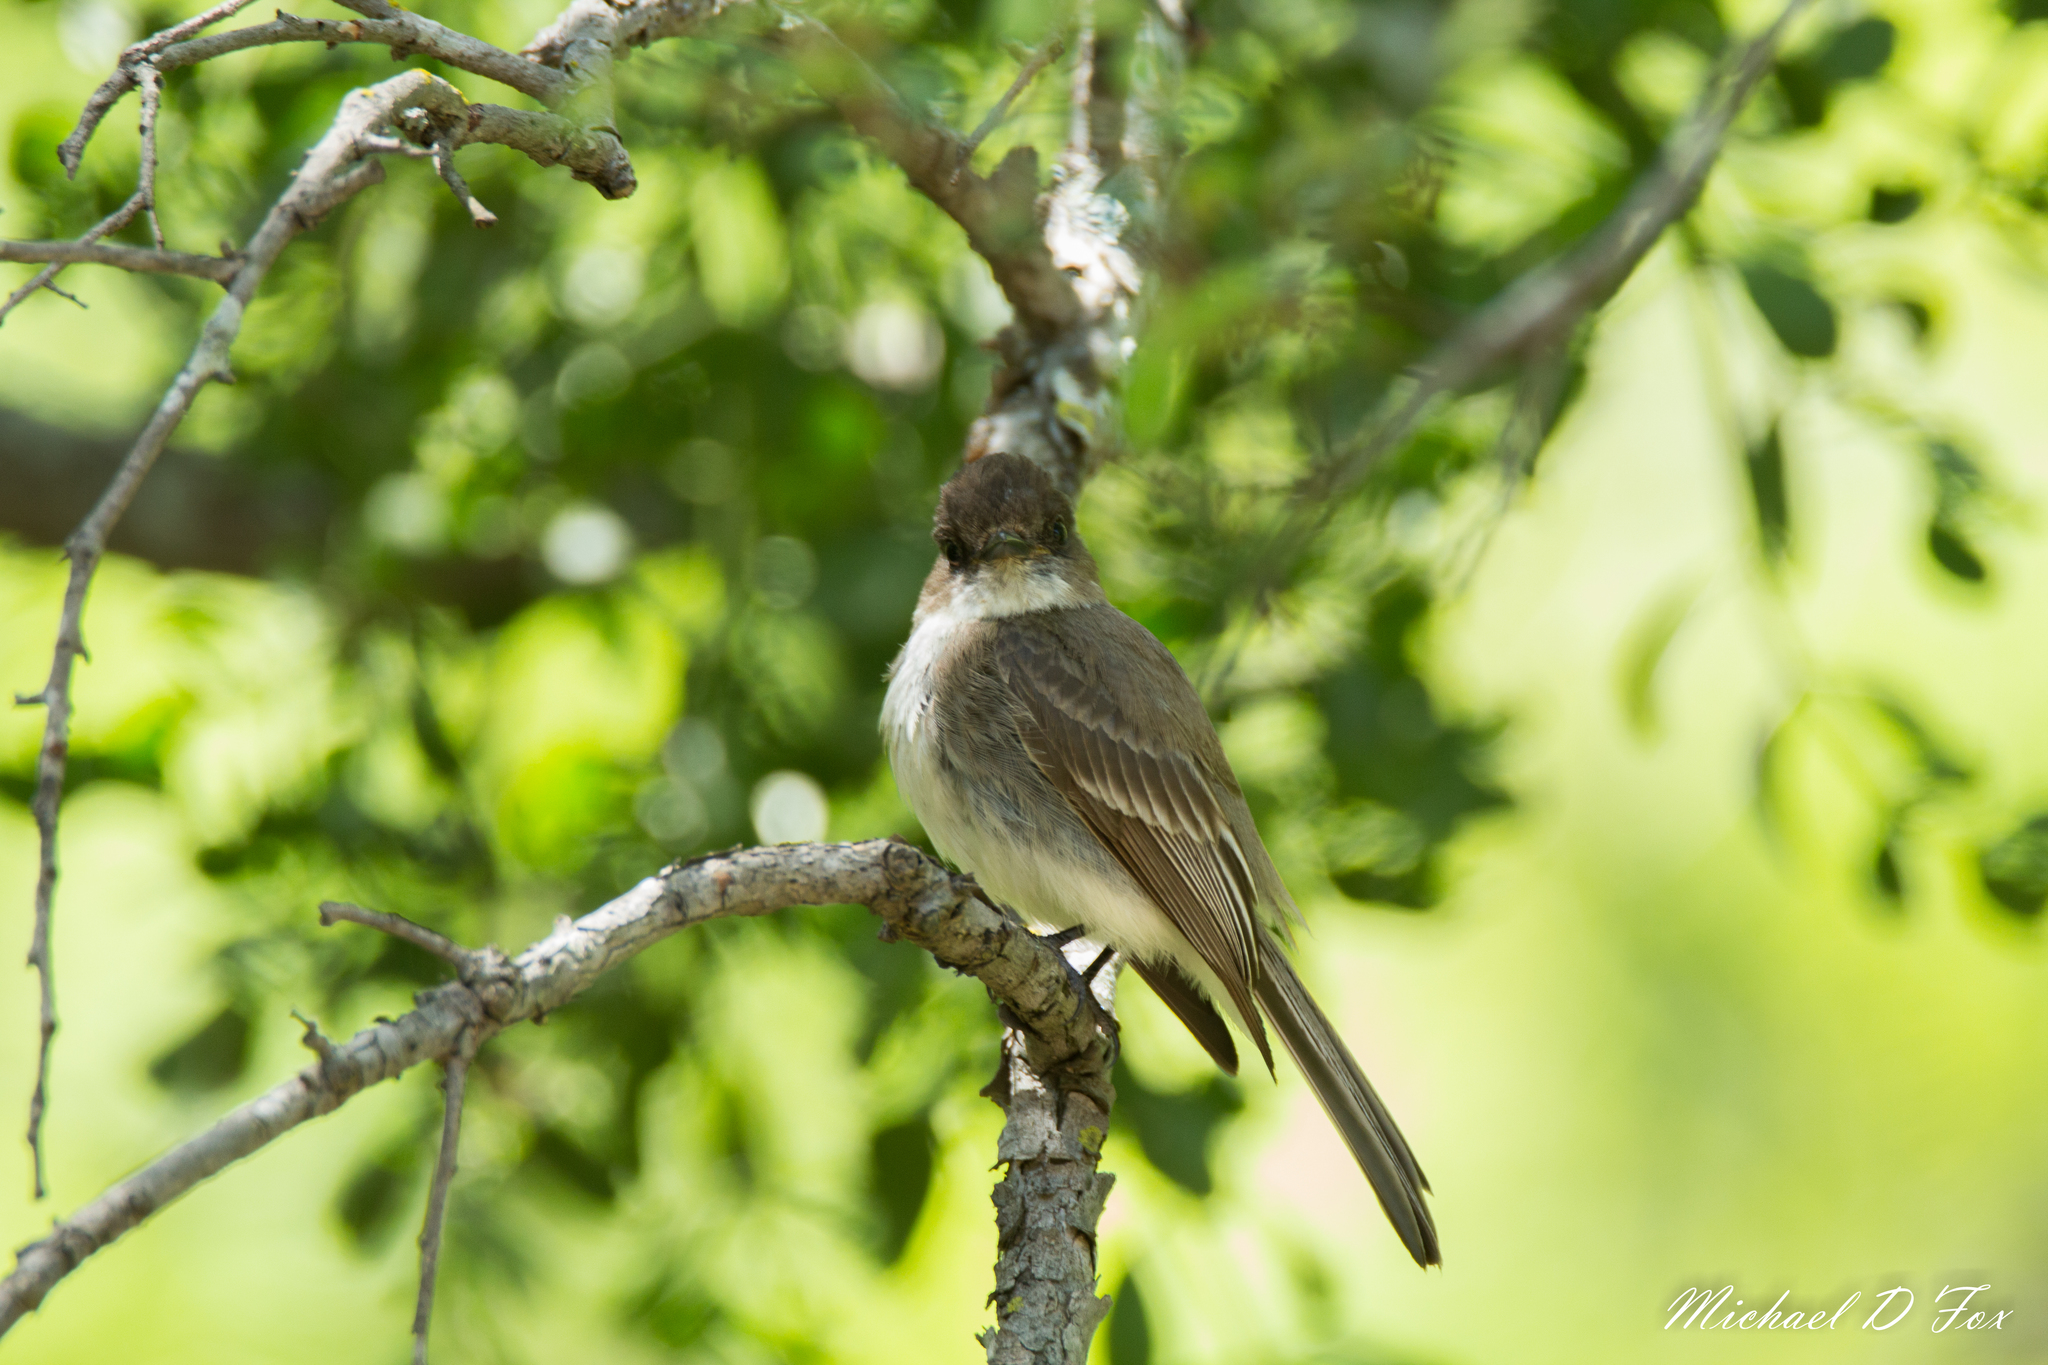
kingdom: Animalia
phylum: Chordata
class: Aves
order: Passeriformes
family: Tyrannidae
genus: Sayornis
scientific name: Sayornis phoebe
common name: Eastern phoebe
